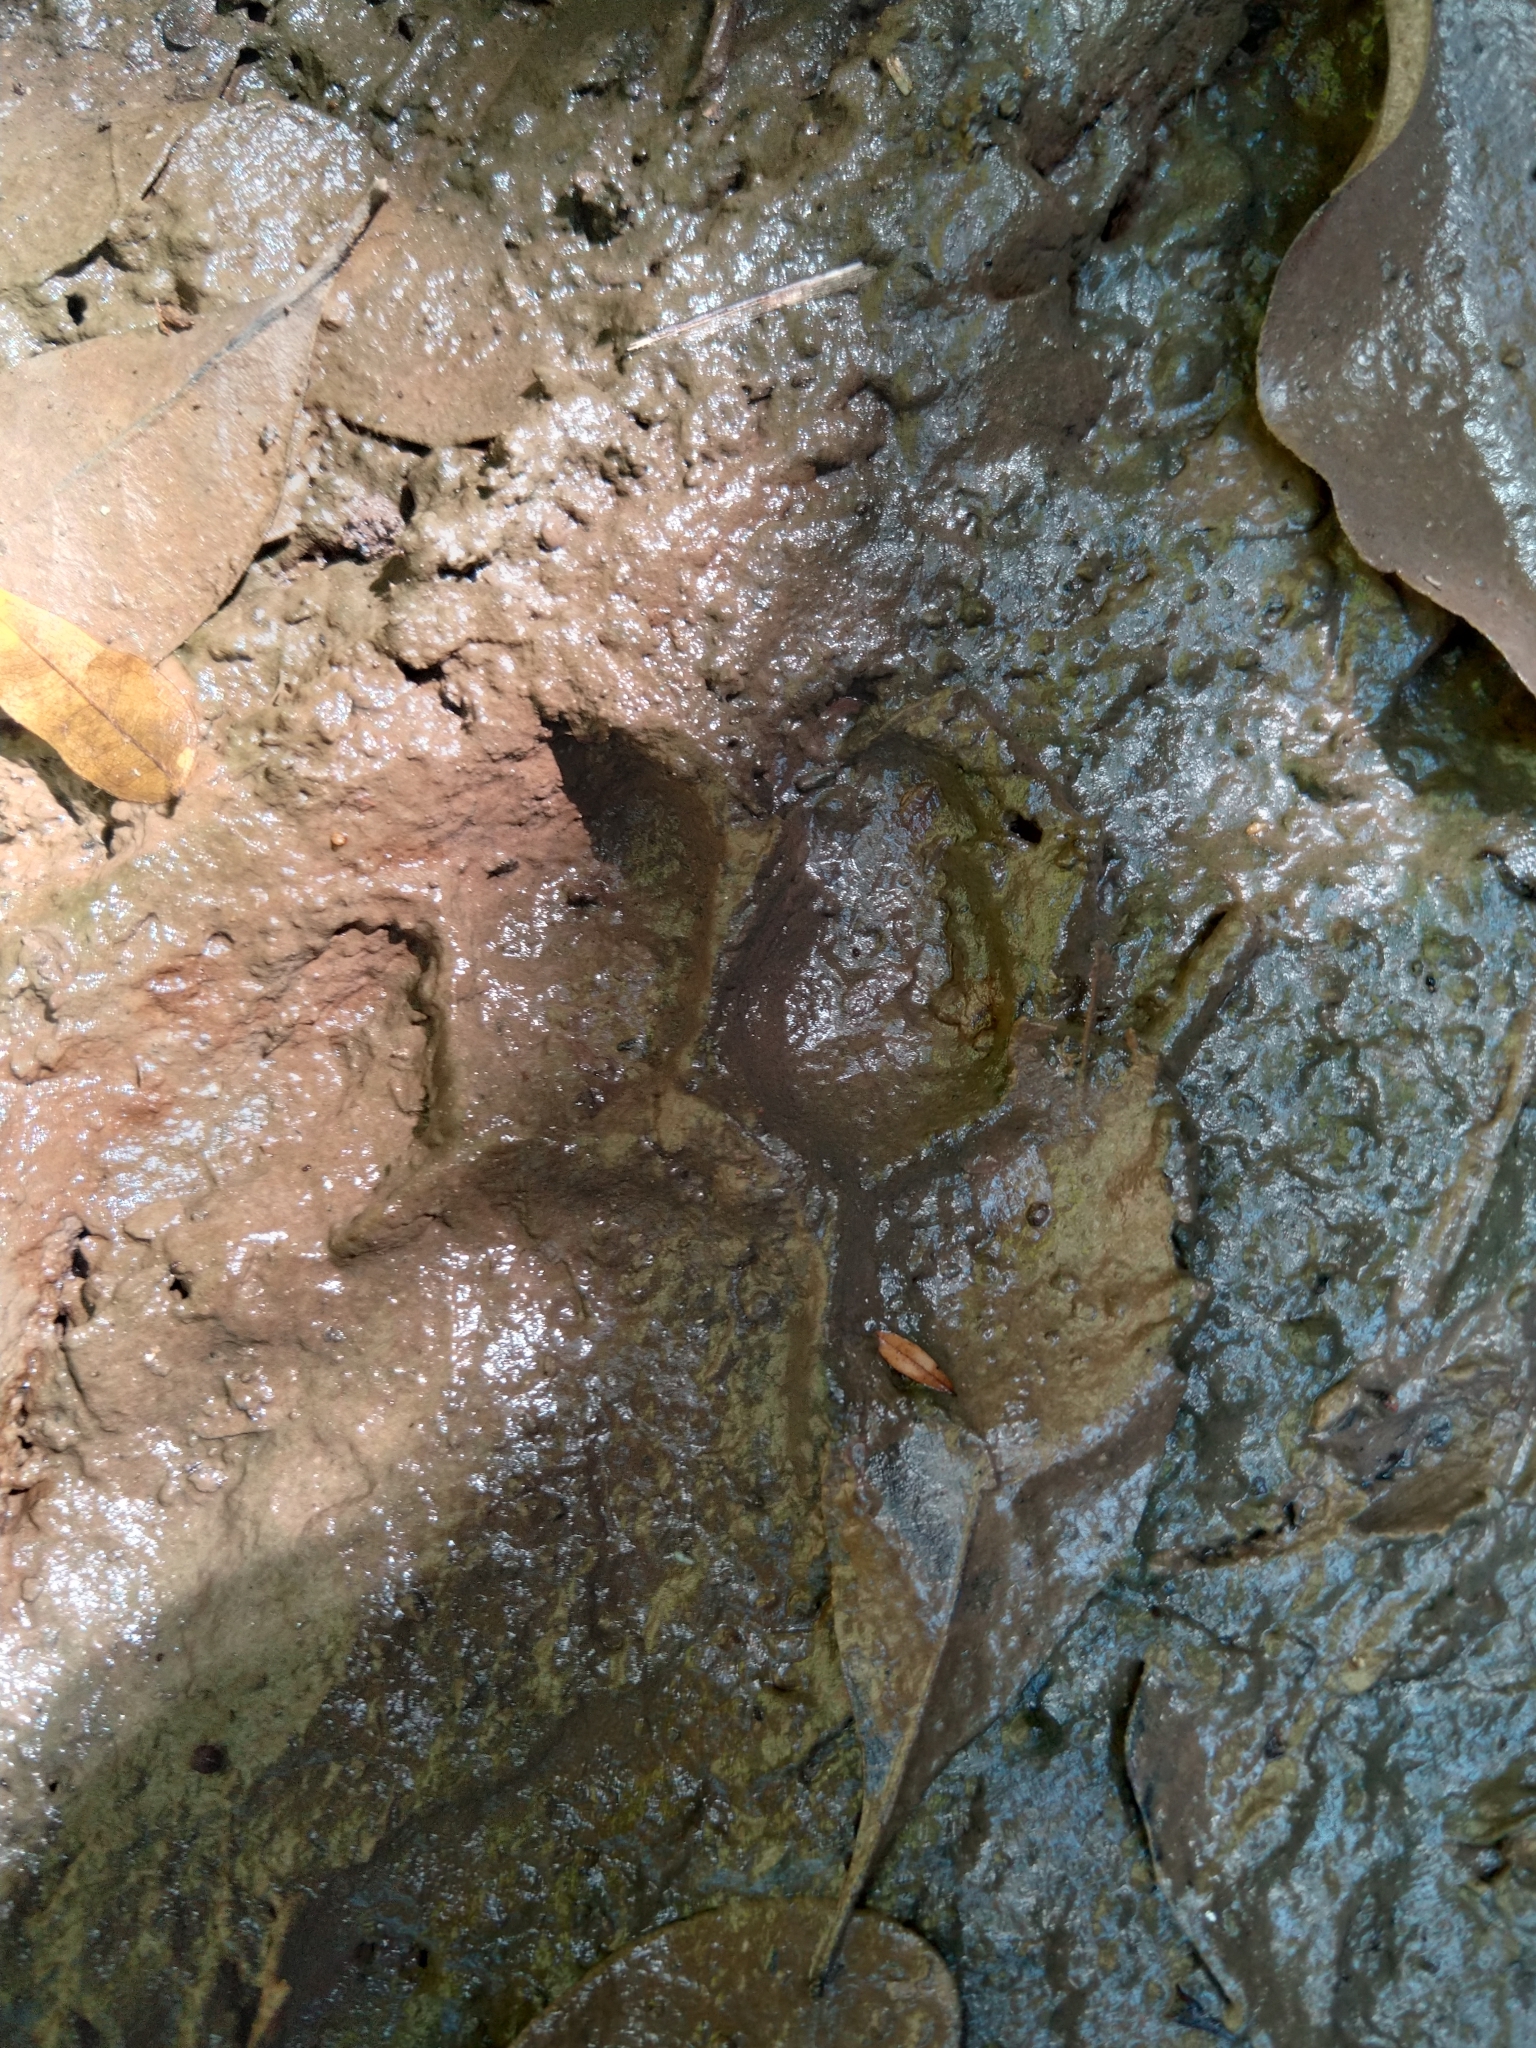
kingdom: Animalia
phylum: Chordata
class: Mammalia
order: Carnivora
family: Felidae
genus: Panthera
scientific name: Panthera onca
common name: Jaguar
